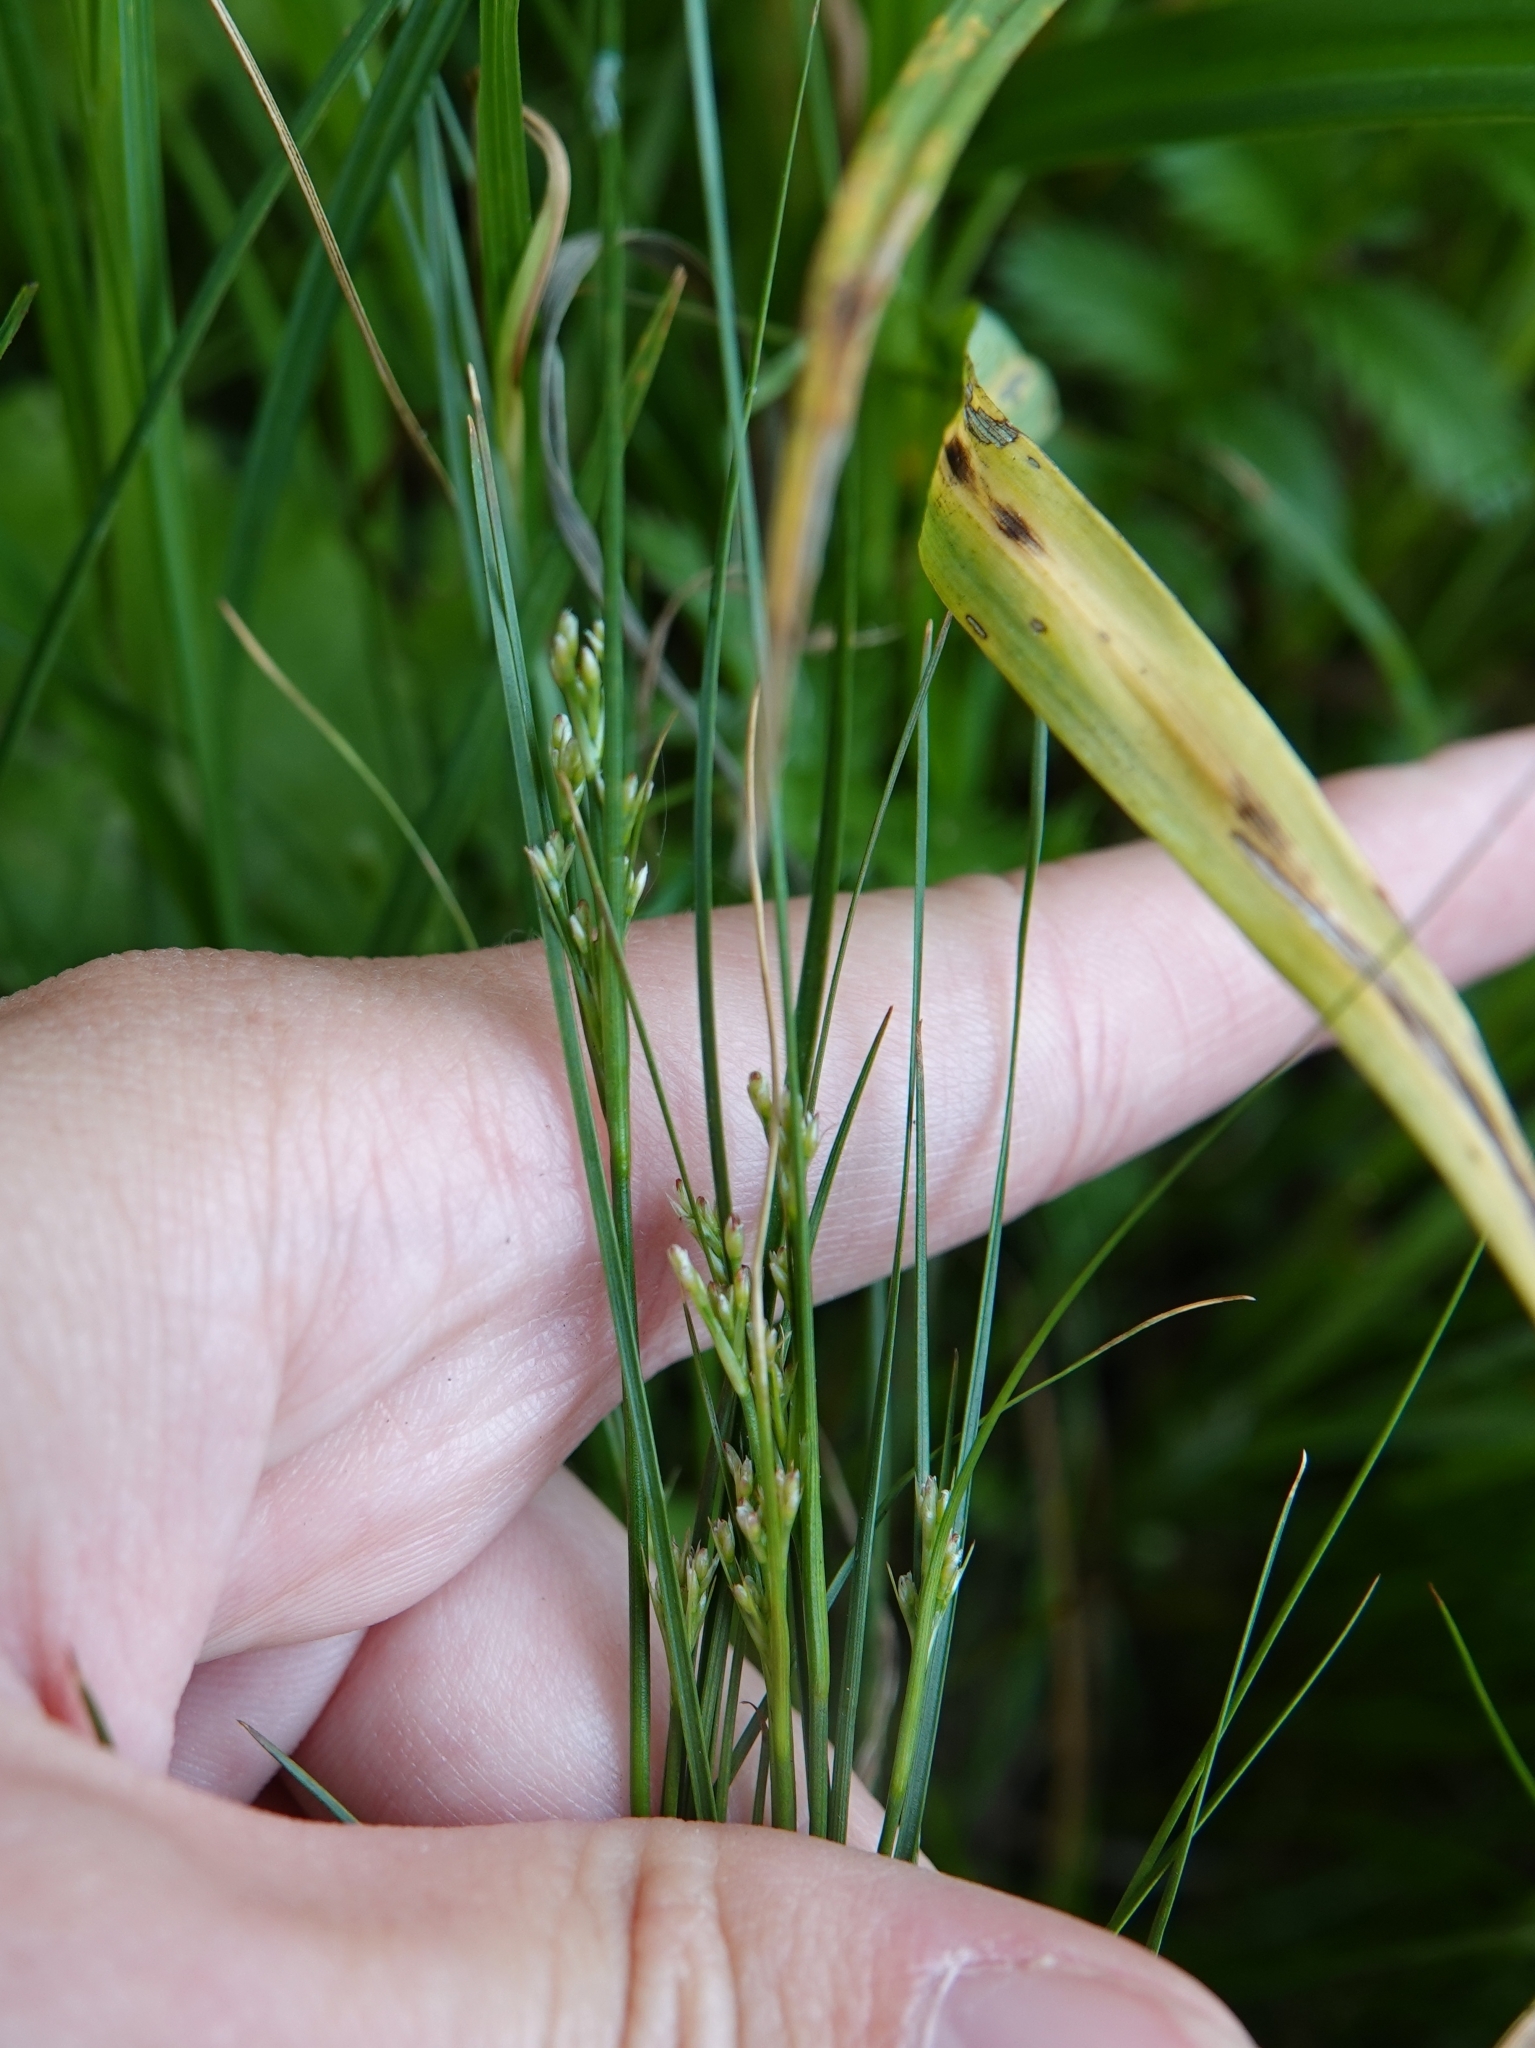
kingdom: Plantae
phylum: Tracheophyta
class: Liliopsida
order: Poales
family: Juncaceae
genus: Juncus
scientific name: Juncus compressus
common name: Round-fruited rush
